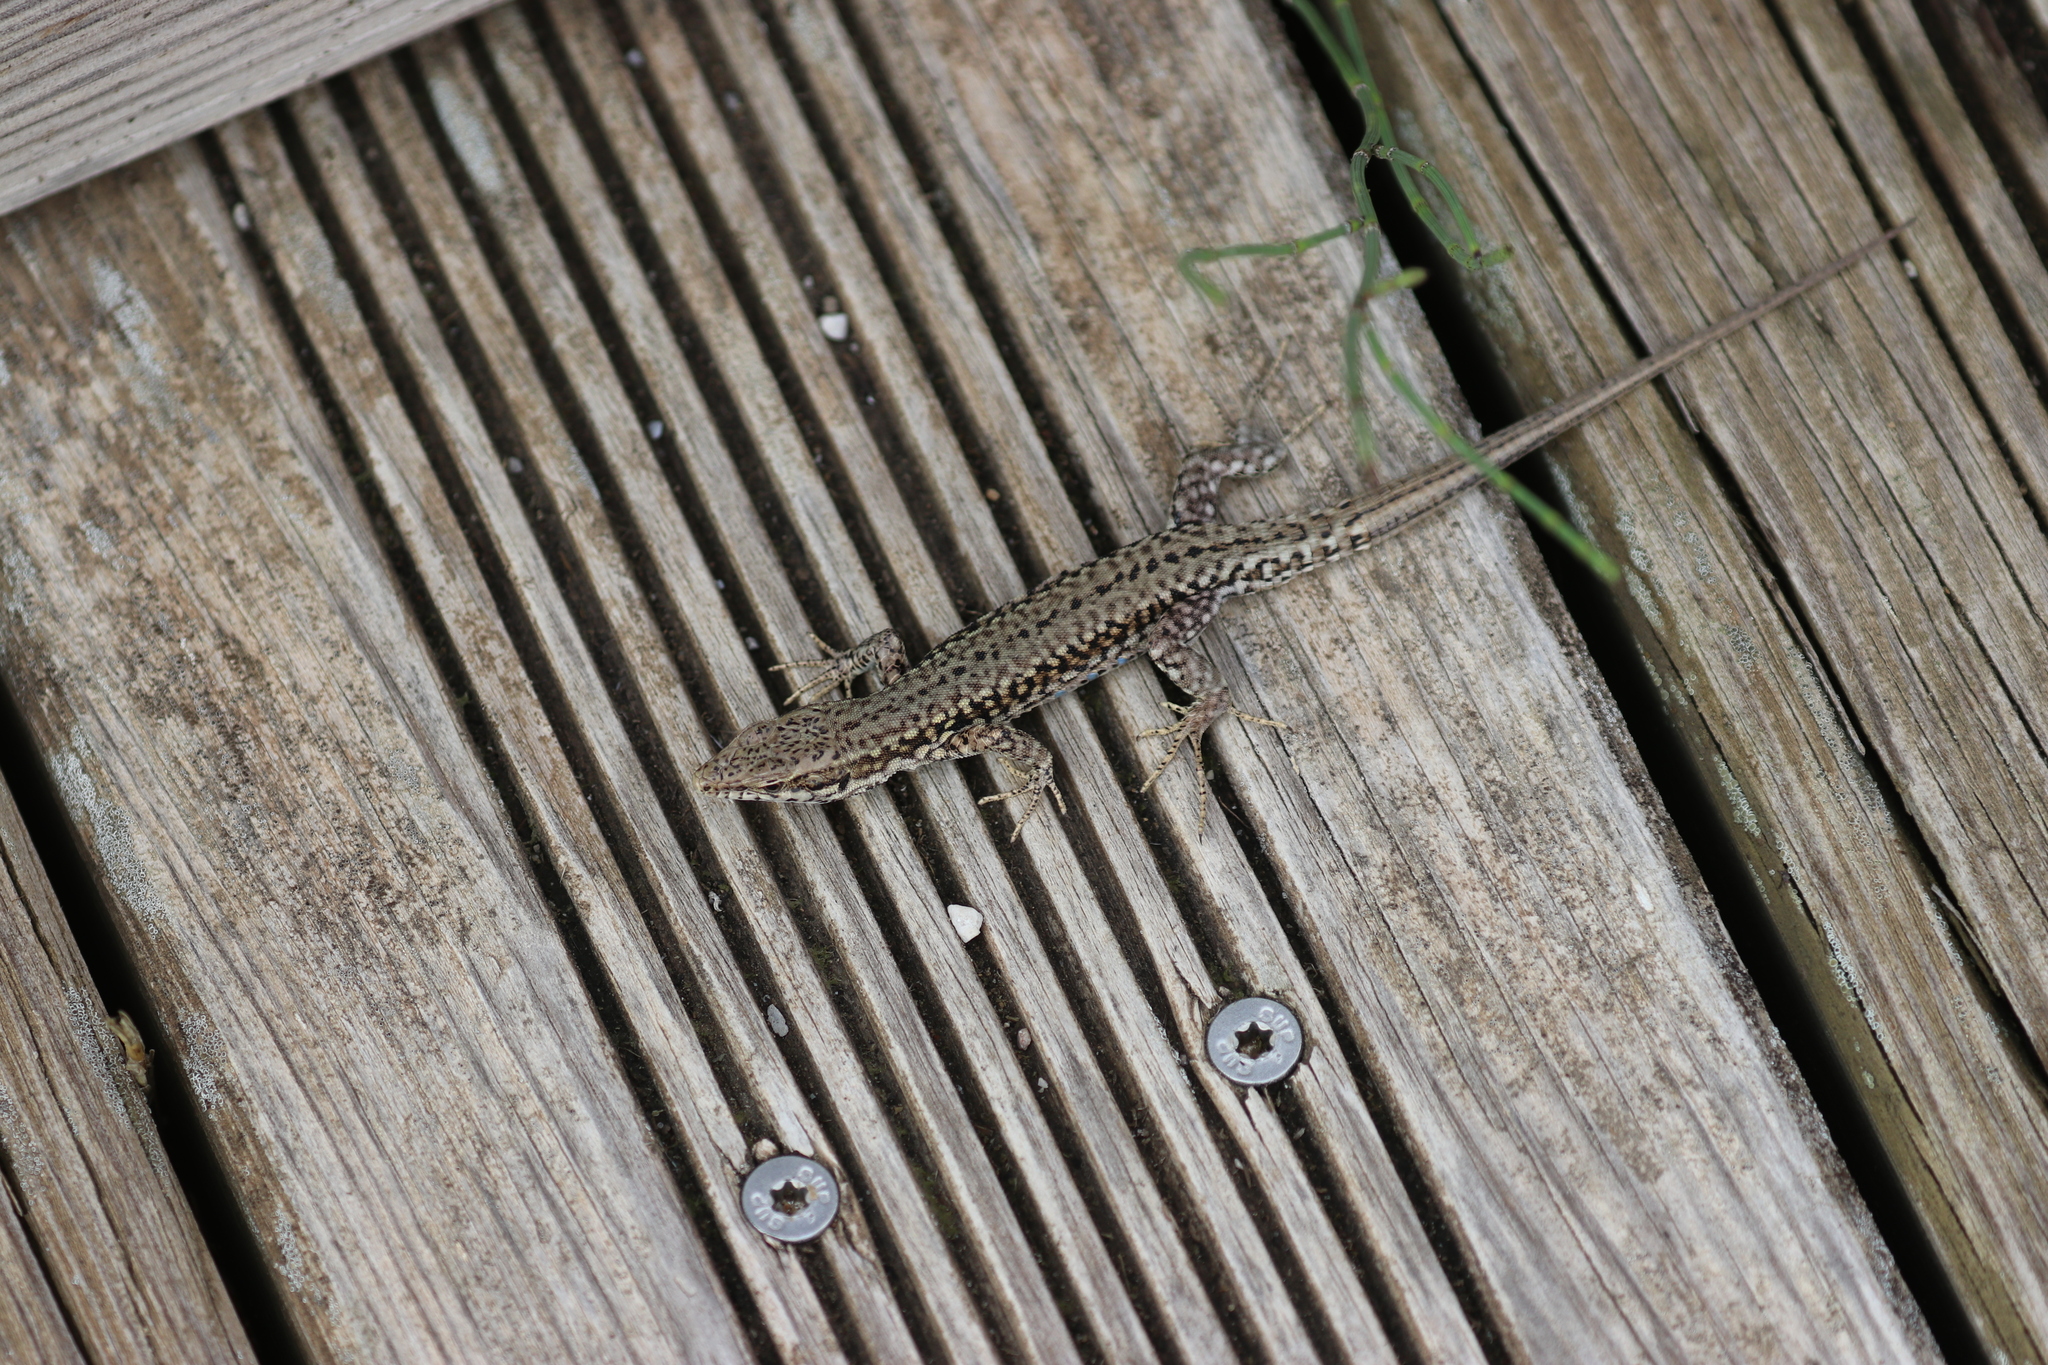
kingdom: Animalia
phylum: Chordata
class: Squamata
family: Lacertidae
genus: Podarcis
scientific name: Podarcis muralis
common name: Common wall lizard
